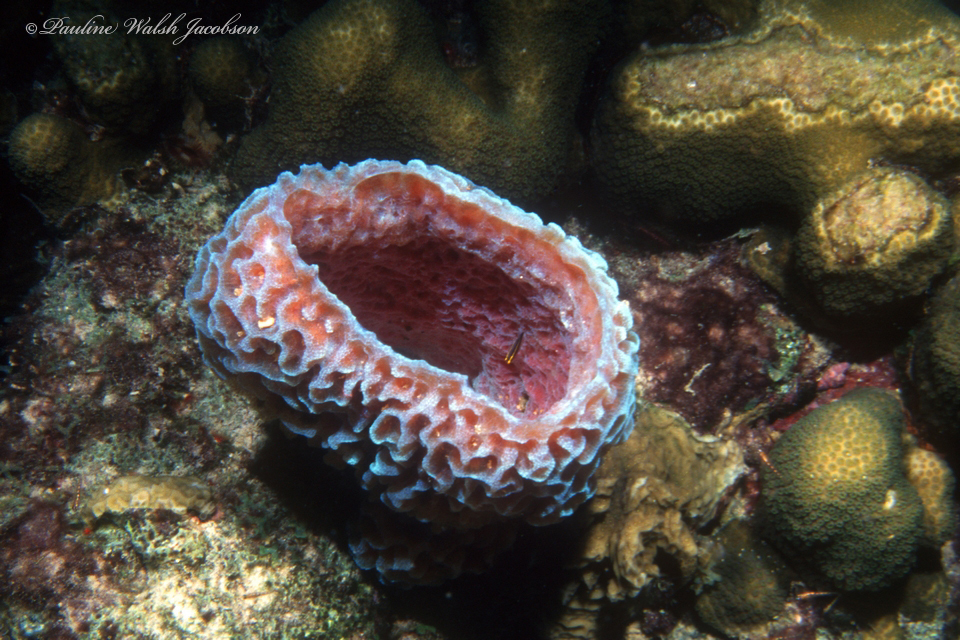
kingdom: Animalia
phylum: Porifera
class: Demospongiae
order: Haplosclerida
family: Callyspongiidae
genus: Callyspongia
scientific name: Callyspongia plicifera
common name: Azure vase sponge
